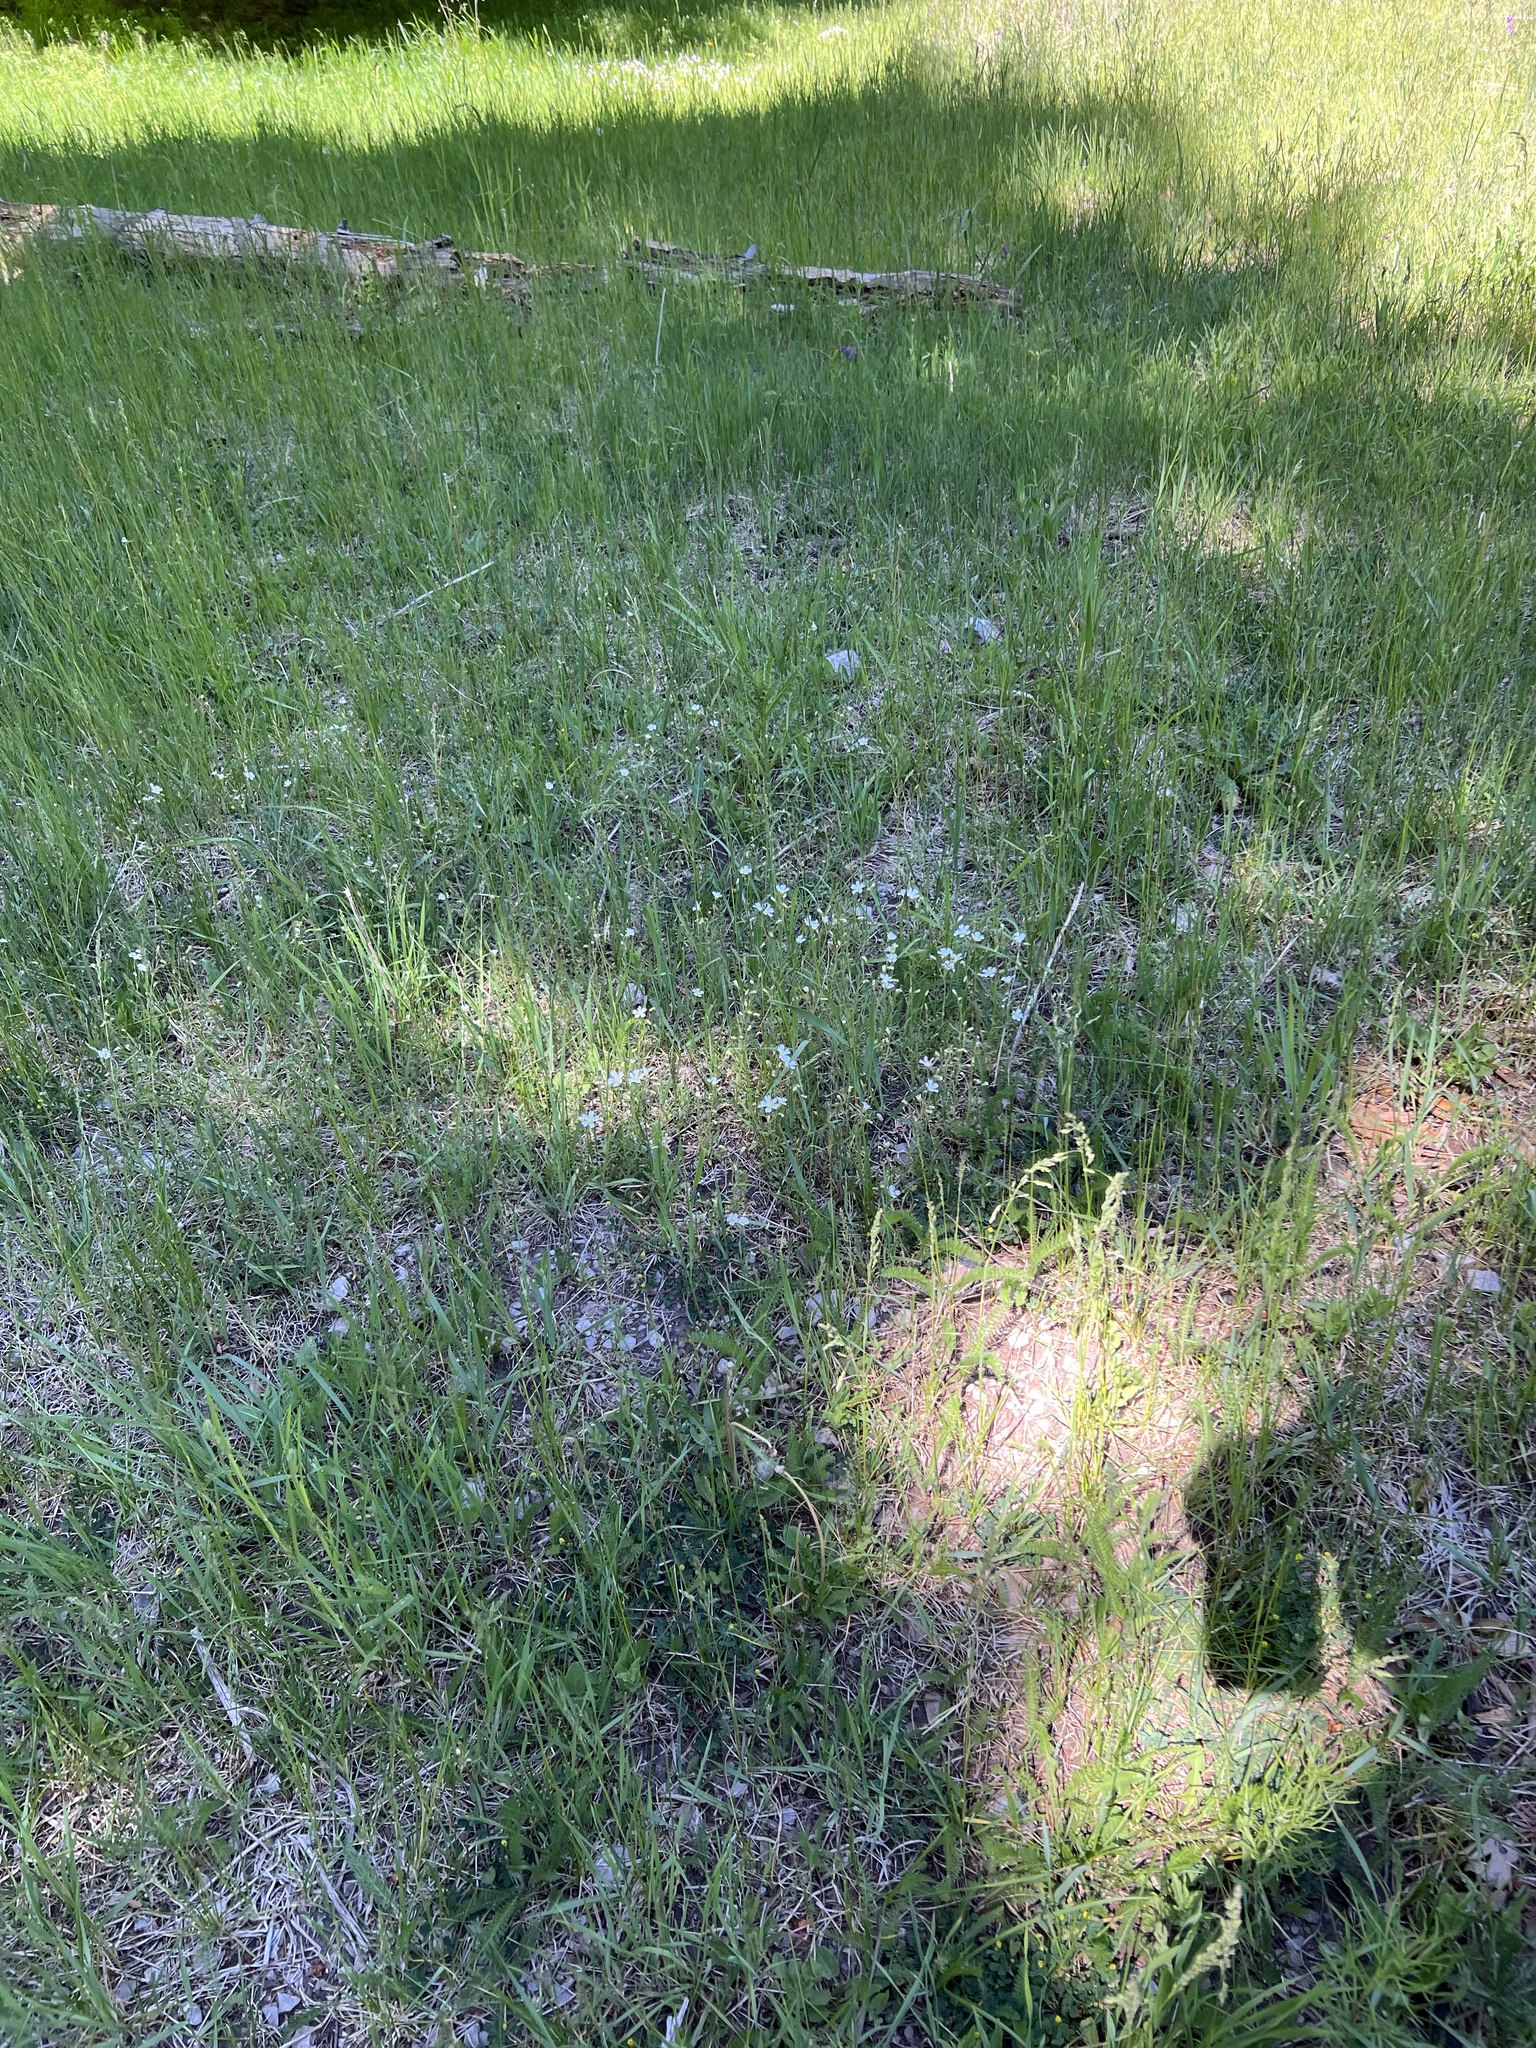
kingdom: Plantae
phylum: Tracheophyta
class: Magnoliopsida
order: Caryophyllales
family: Caryophyllaceae
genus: Cerastium
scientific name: Cerastium arvense
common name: Field mouse-ear
